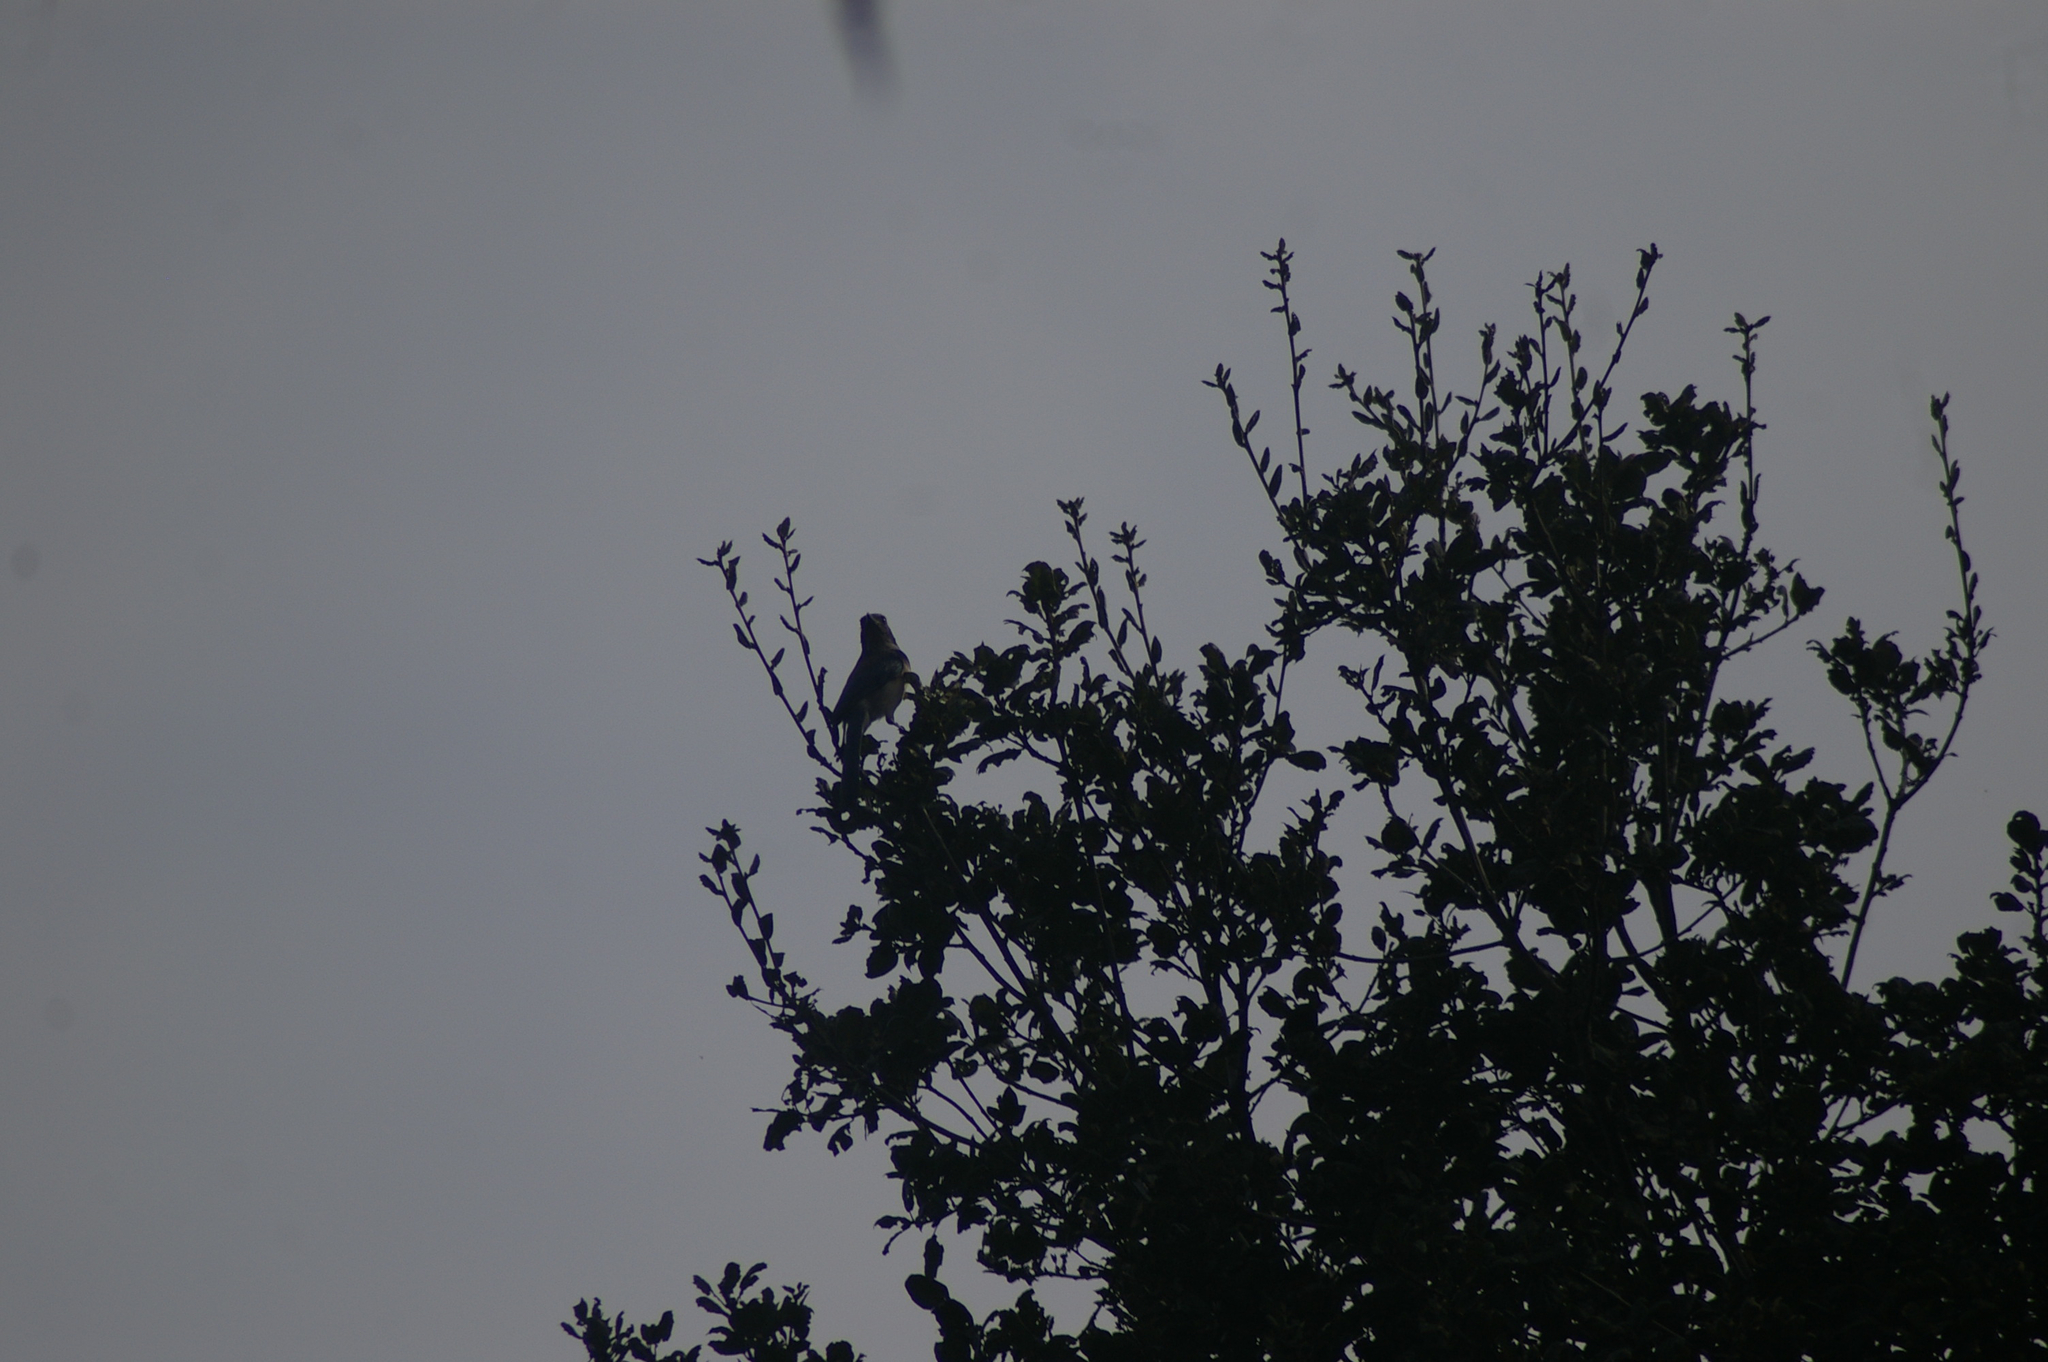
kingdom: Animalia
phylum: Chordata
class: Aves
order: Passeriformes
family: Corvidae
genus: Aphelocoma
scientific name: Aphelocoma californica
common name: California scrub-jay
